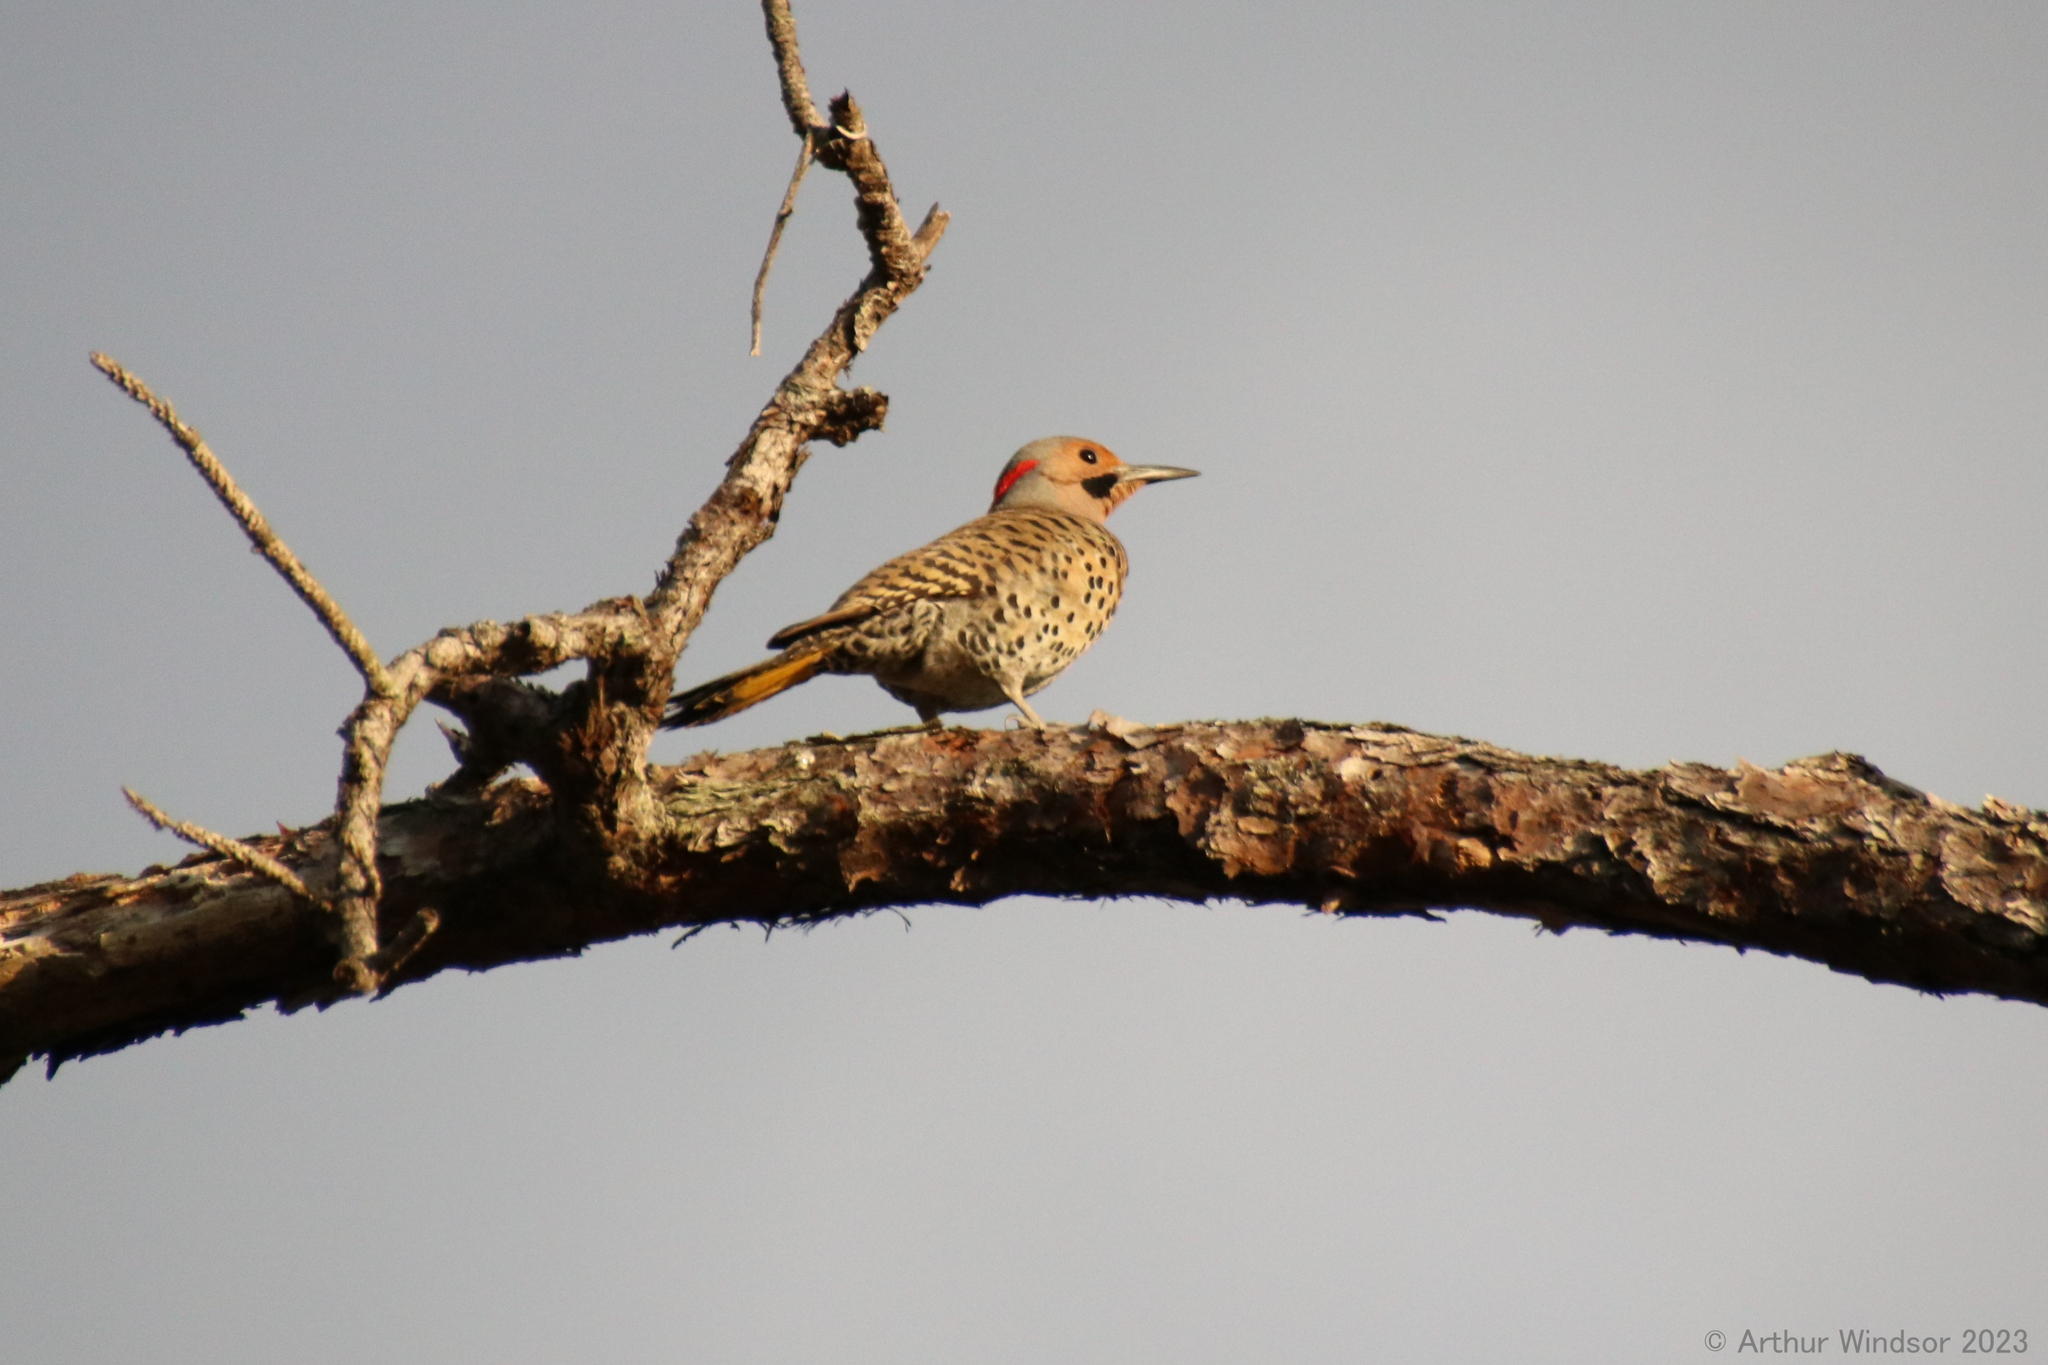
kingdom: Animalia
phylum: Chordata
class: Aves
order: Piciformes
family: Picidae
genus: Colaptes
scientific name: Colaptes auratus
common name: Northern flicker
